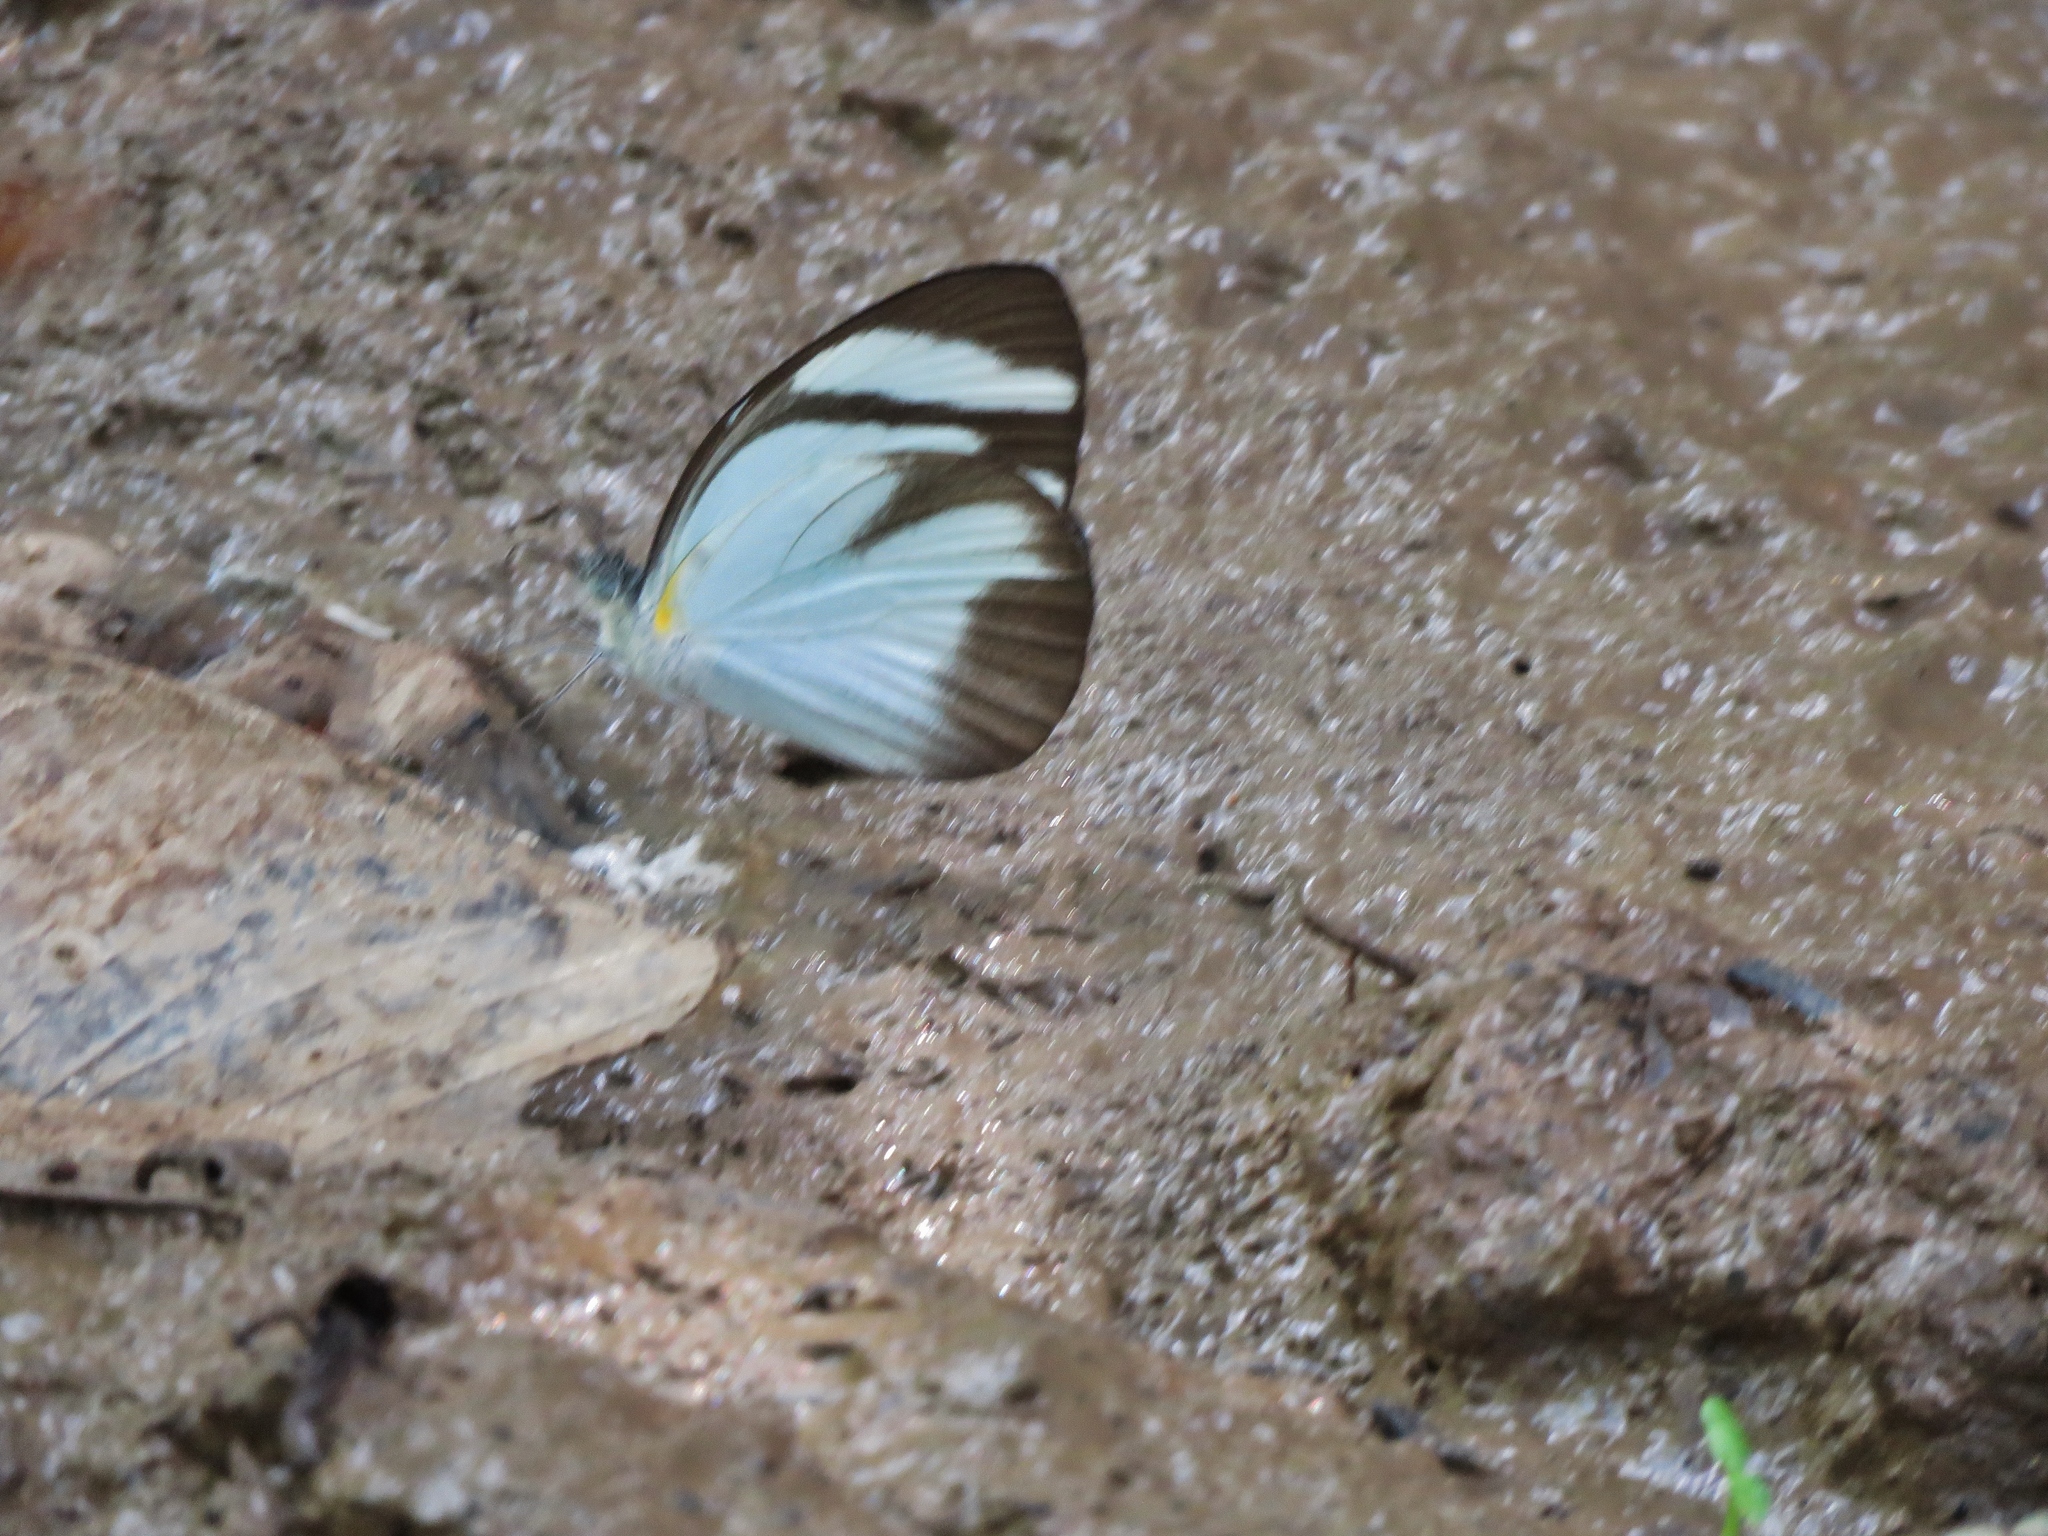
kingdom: Animalia
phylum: Arthropoda
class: Insecta
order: Lepidoptera
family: Pieridae
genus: Itaballia
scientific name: Itaballia demophile
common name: Cross-barred white
